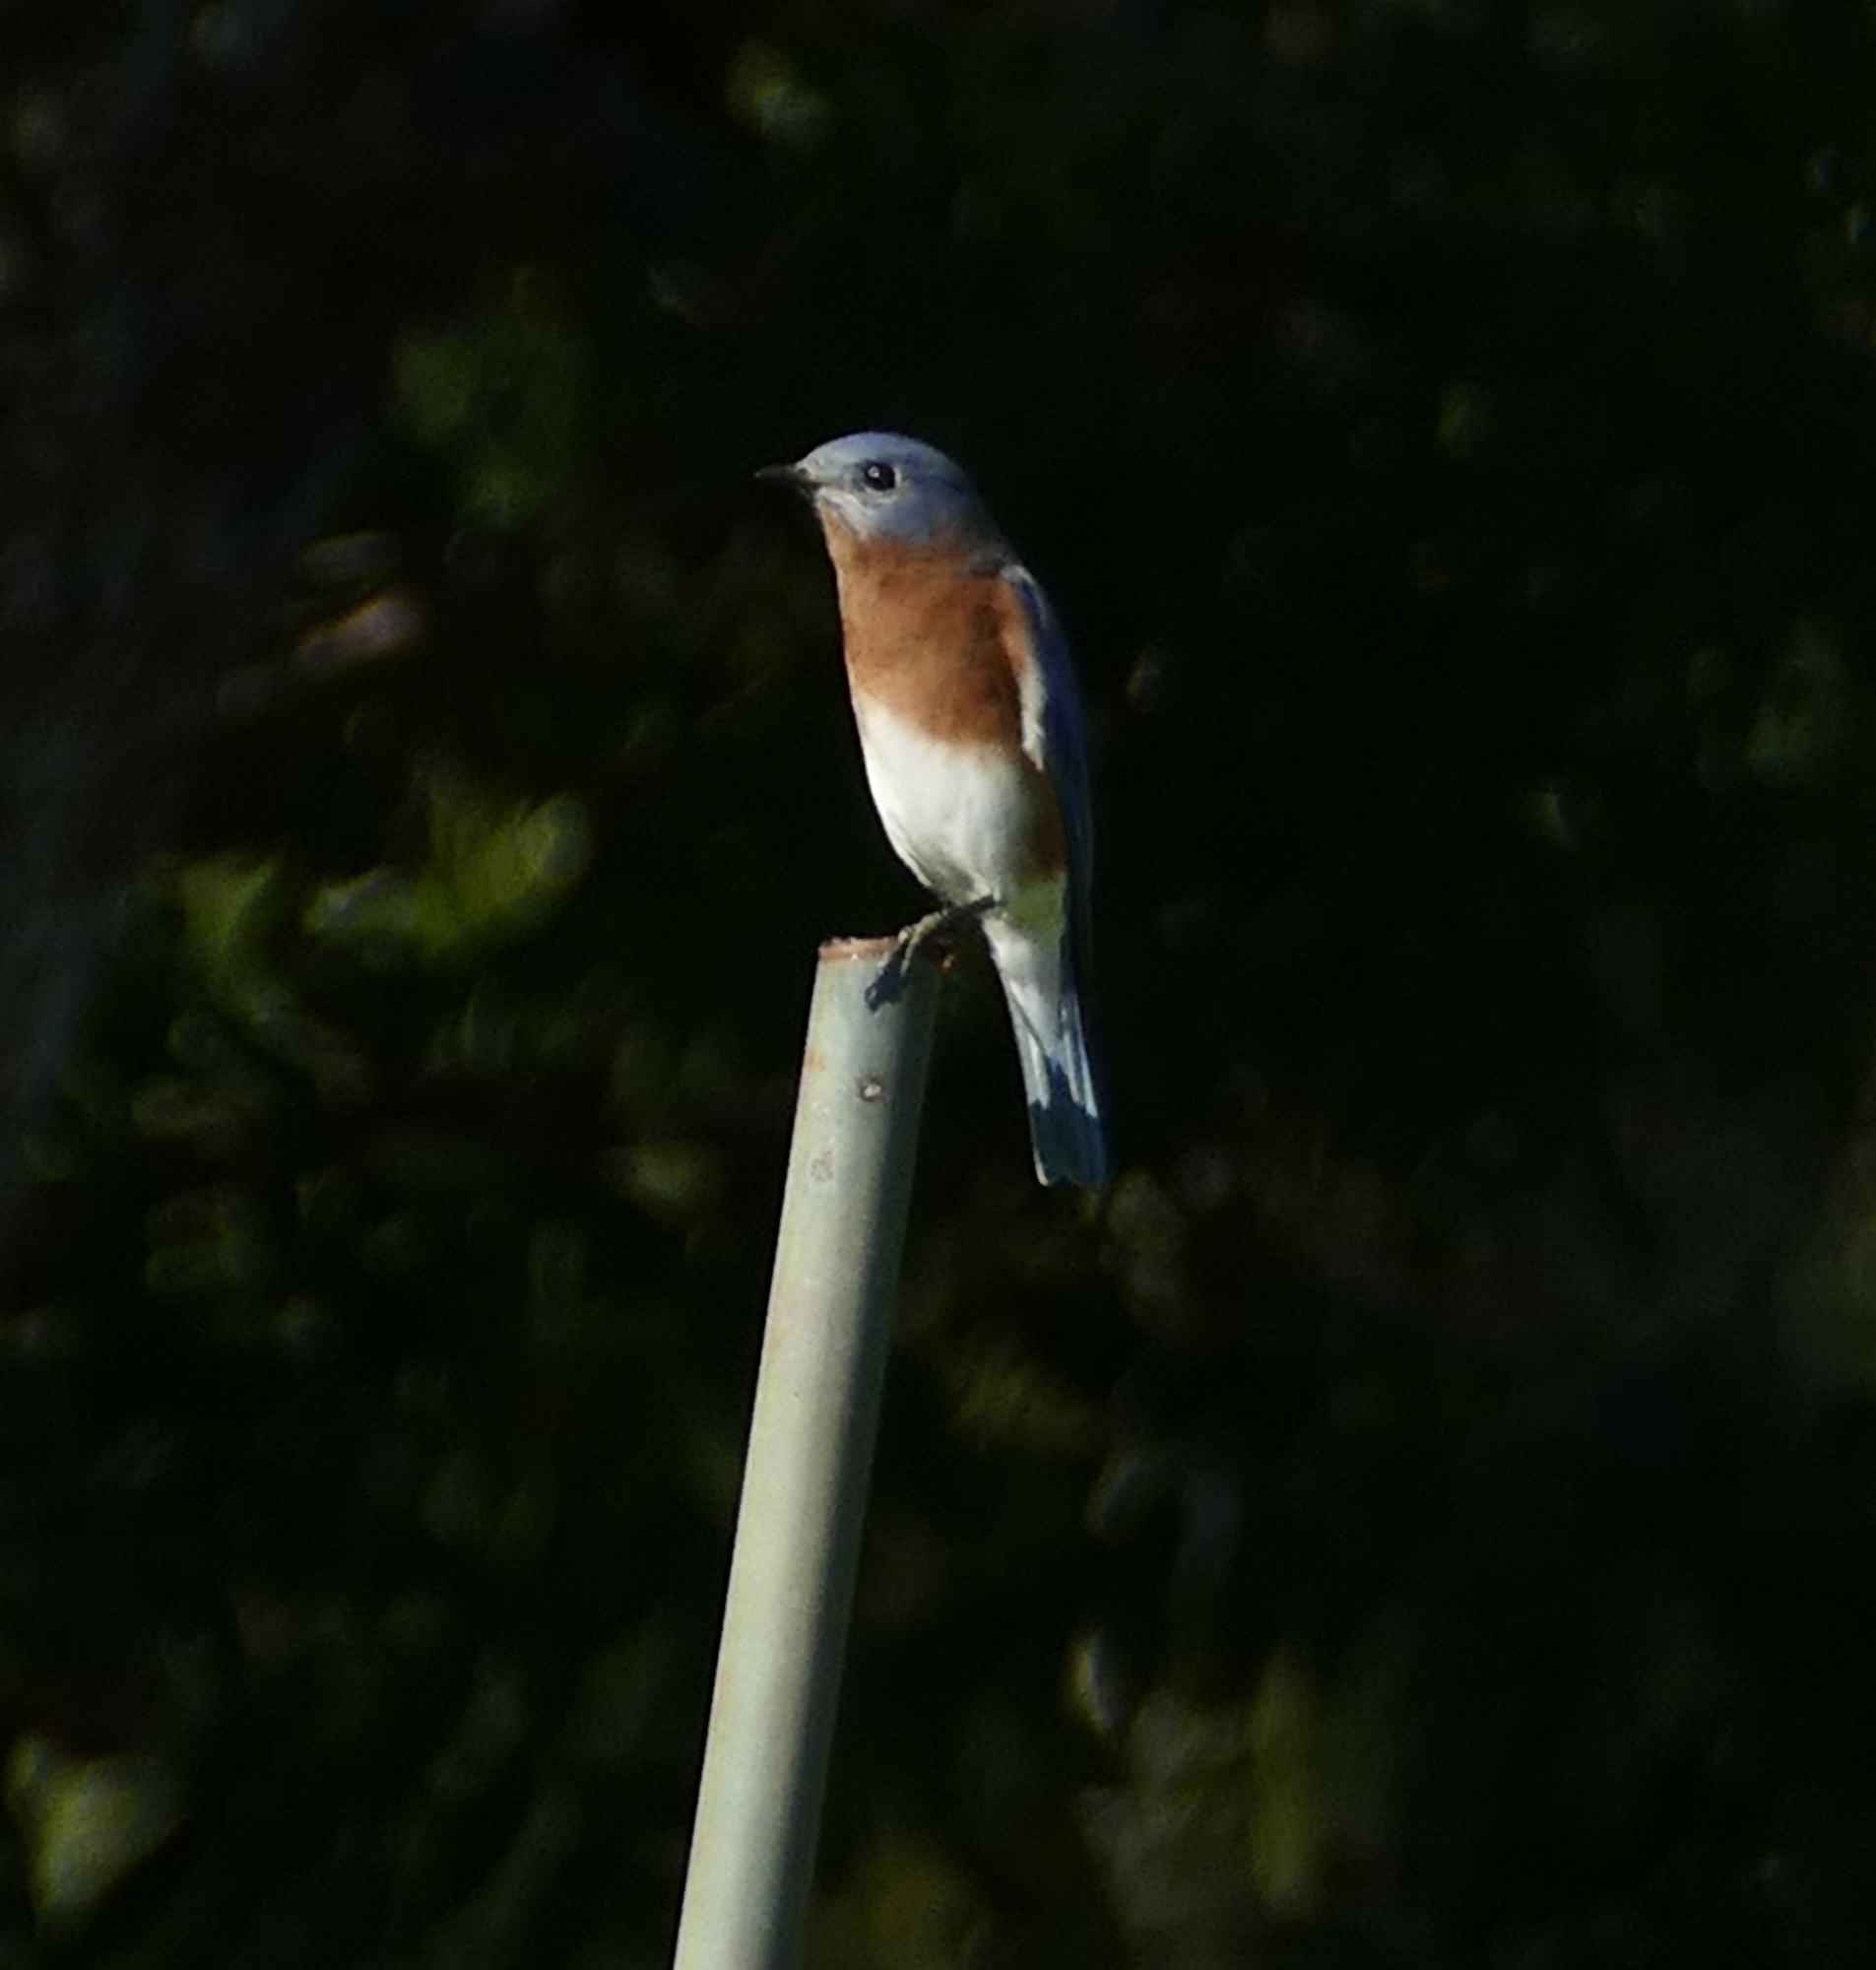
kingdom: Animalia
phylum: Chordata
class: Aves
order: Passeriformes
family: Turdidae
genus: Sialia
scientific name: Sialia sialis
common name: Eastern bluebird
